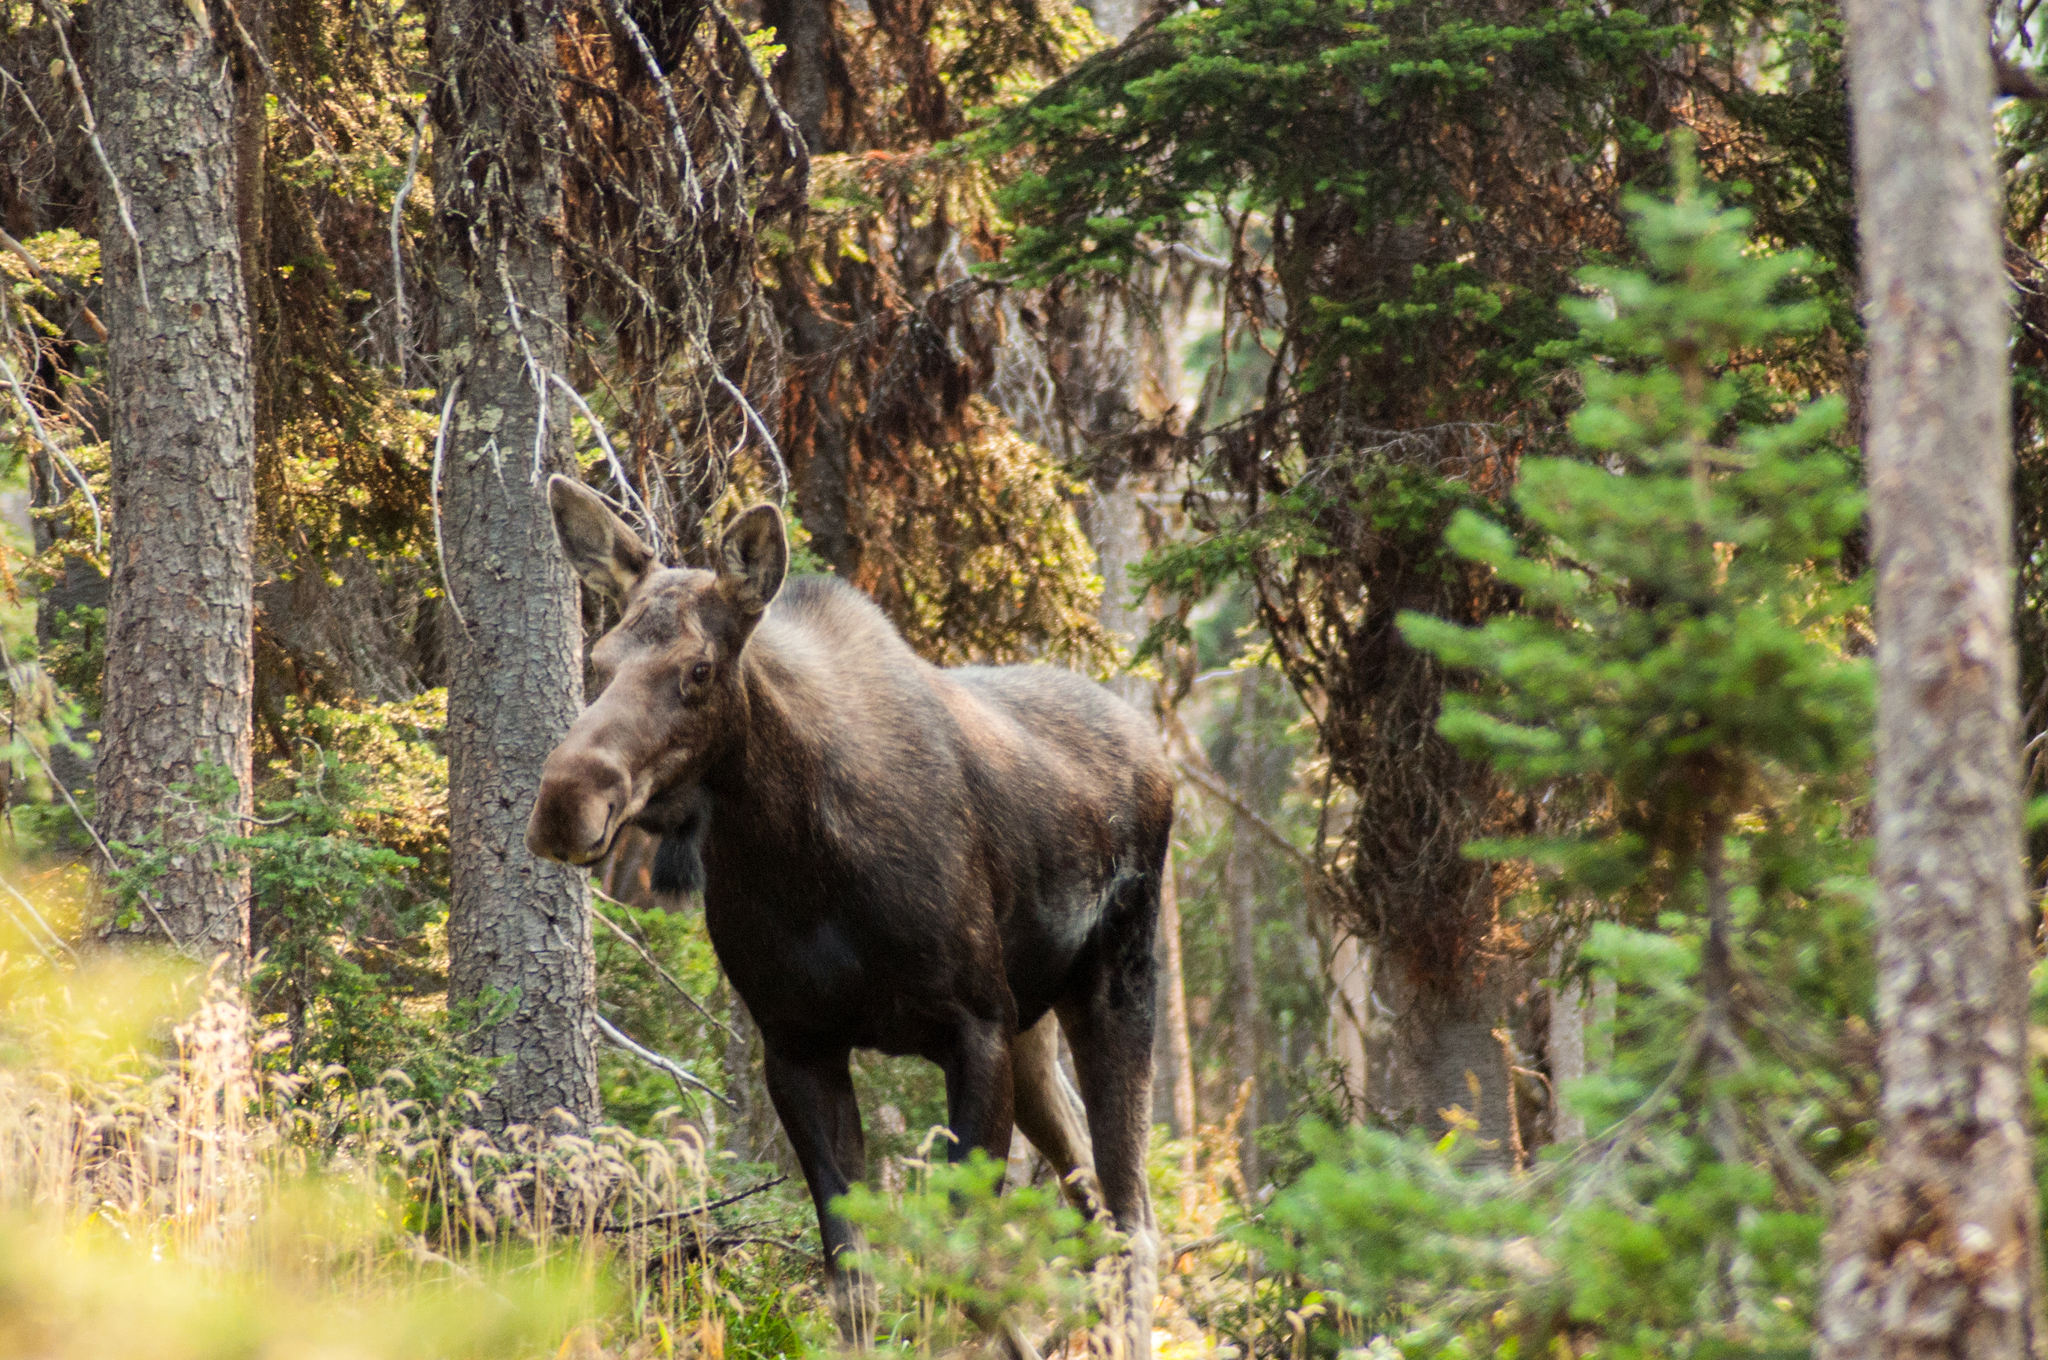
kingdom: Animalia
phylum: Chordata
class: Mammalia
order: Artiodactyla
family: Cervidae
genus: Alces
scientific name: Alces alces
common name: Moose
